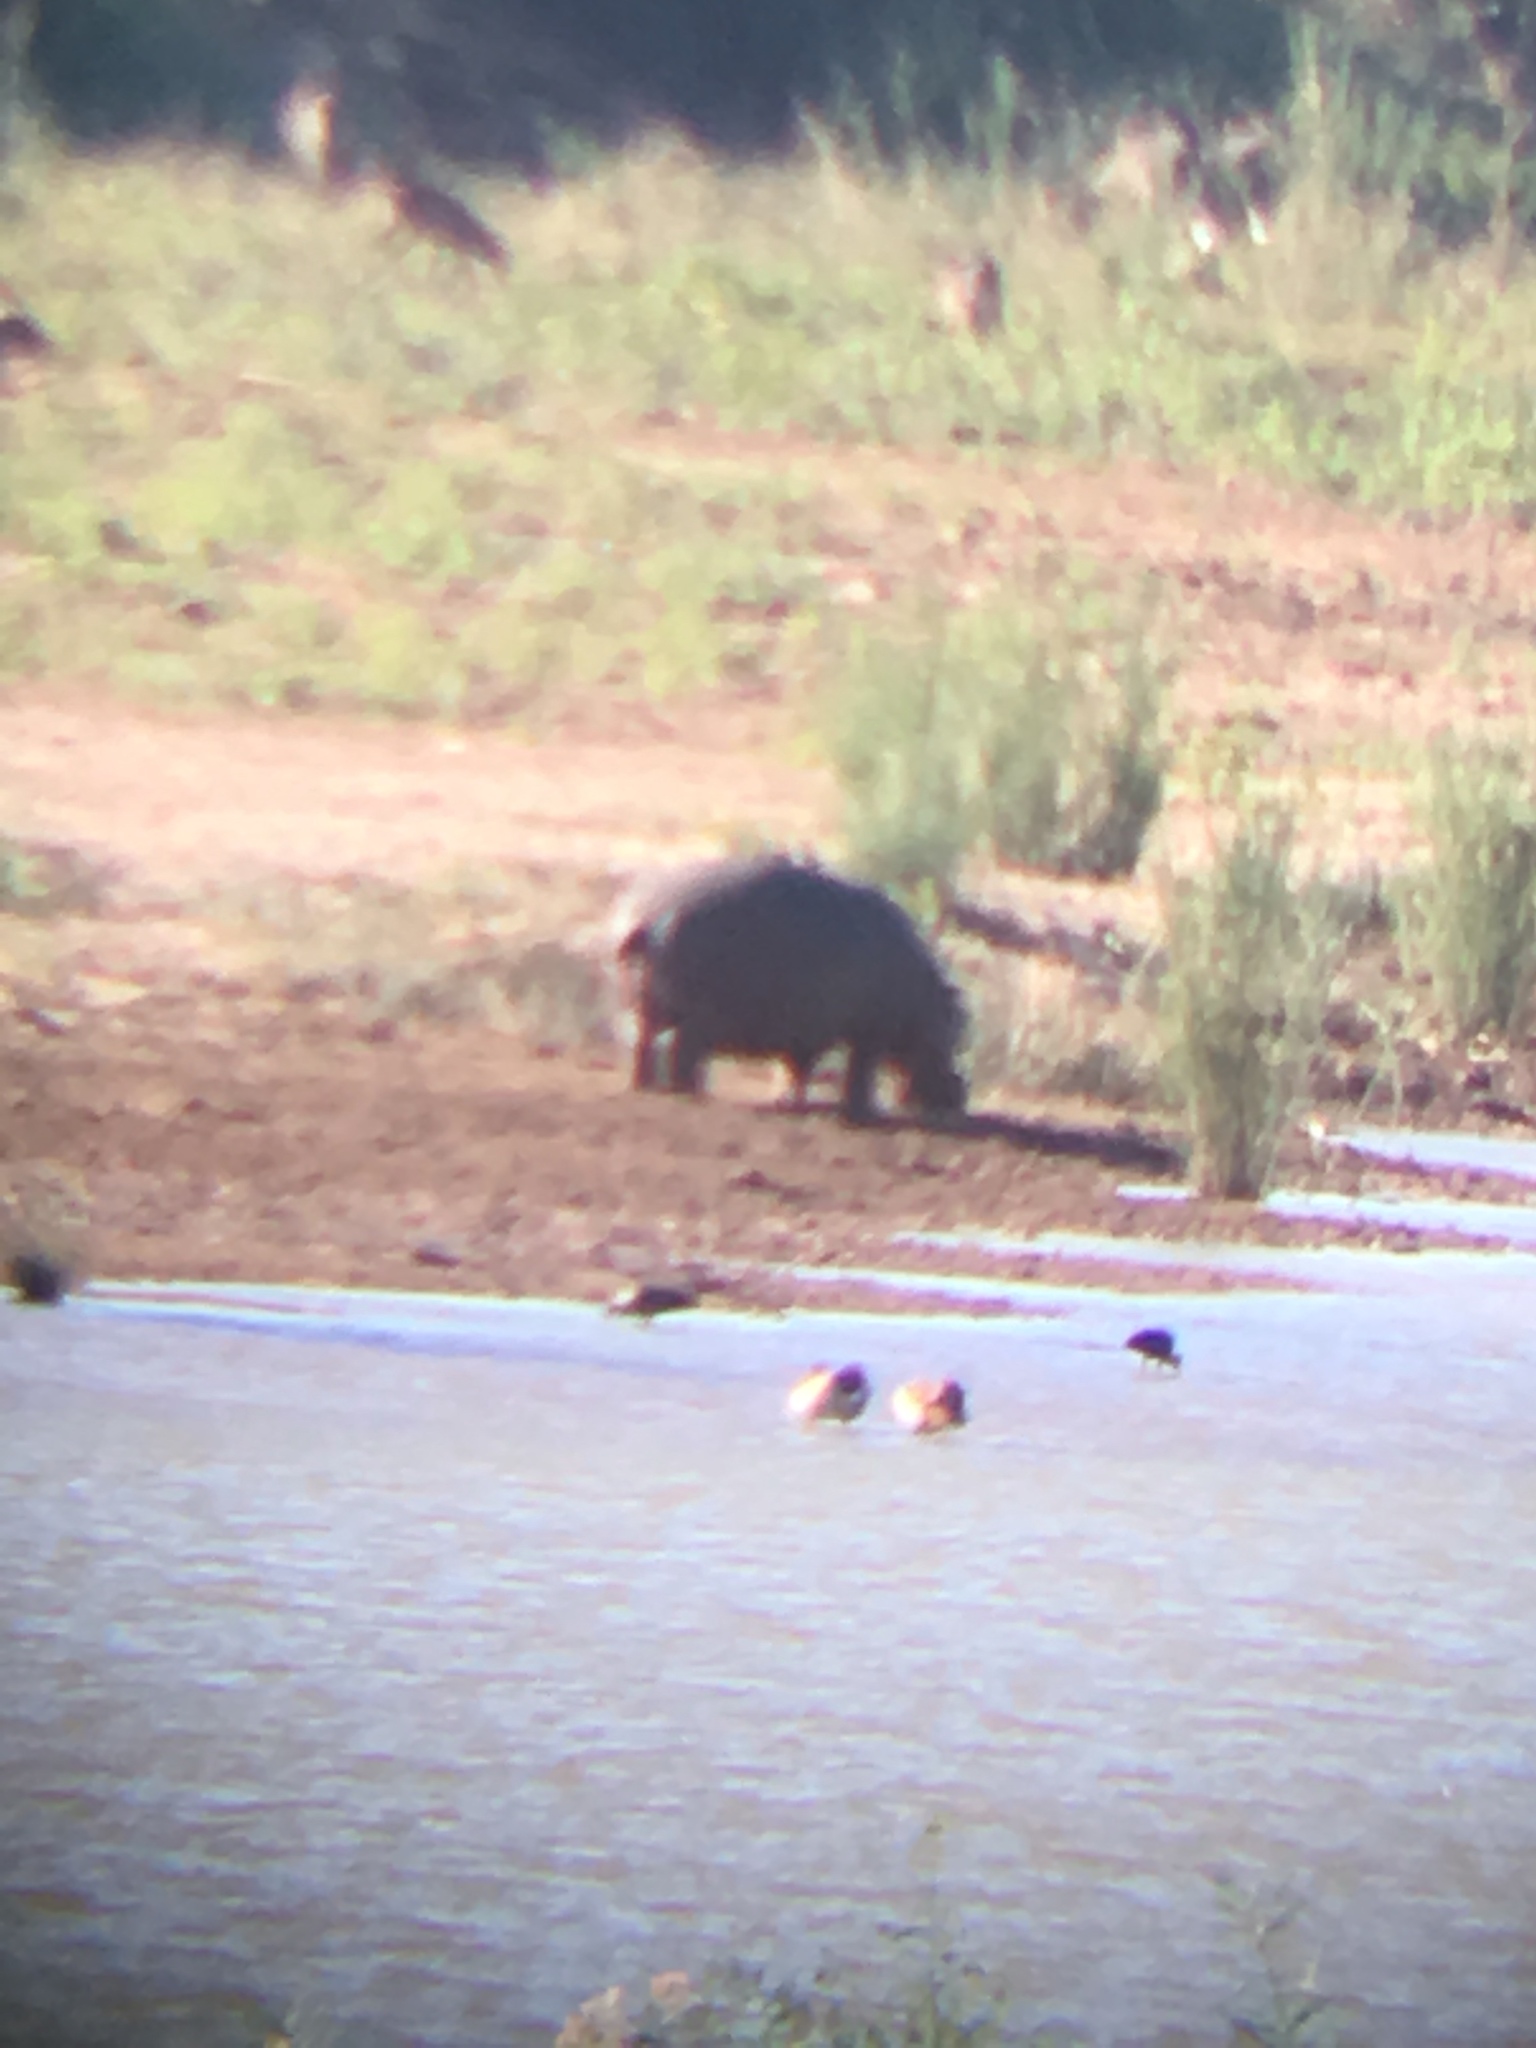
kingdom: Animalia
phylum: Chordata
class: Mammalia
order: Artiodactyla
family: Hippopotamidae
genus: Hippopotamus
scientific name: Hippopotamus amphibius
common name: Common hippopotamus
